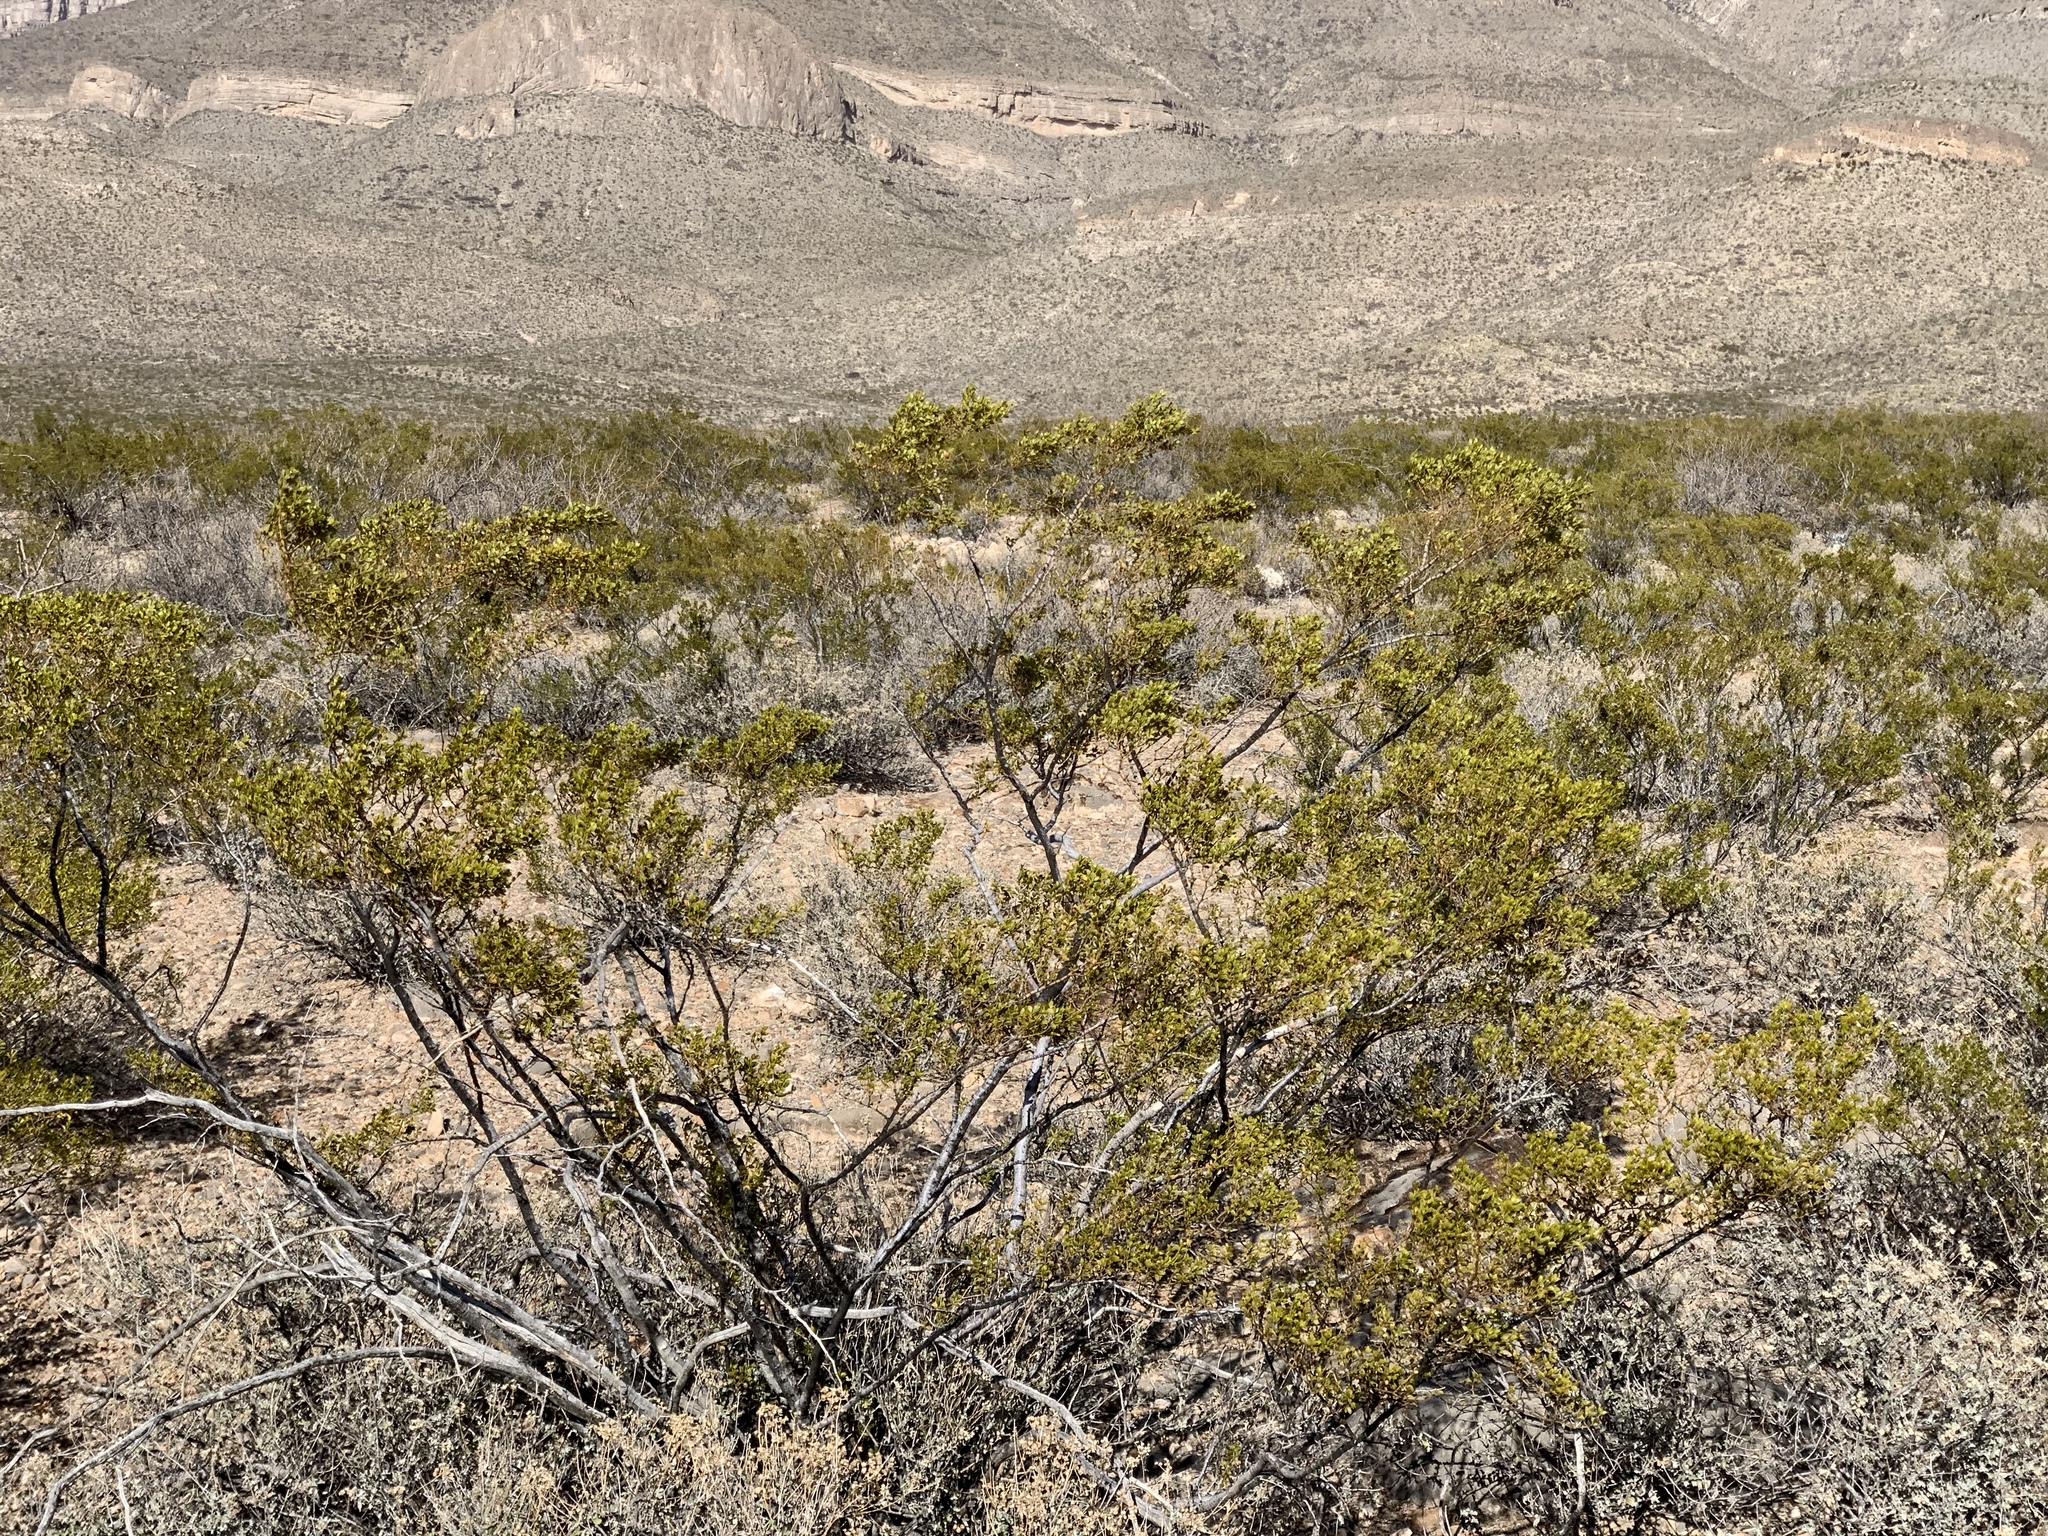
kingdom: Plantae
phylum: Tracheophyta
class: Magnoliopsida
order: Zygophyllales
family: Zygophyllaceae
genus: Larrea
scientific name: Larrea tridentata
